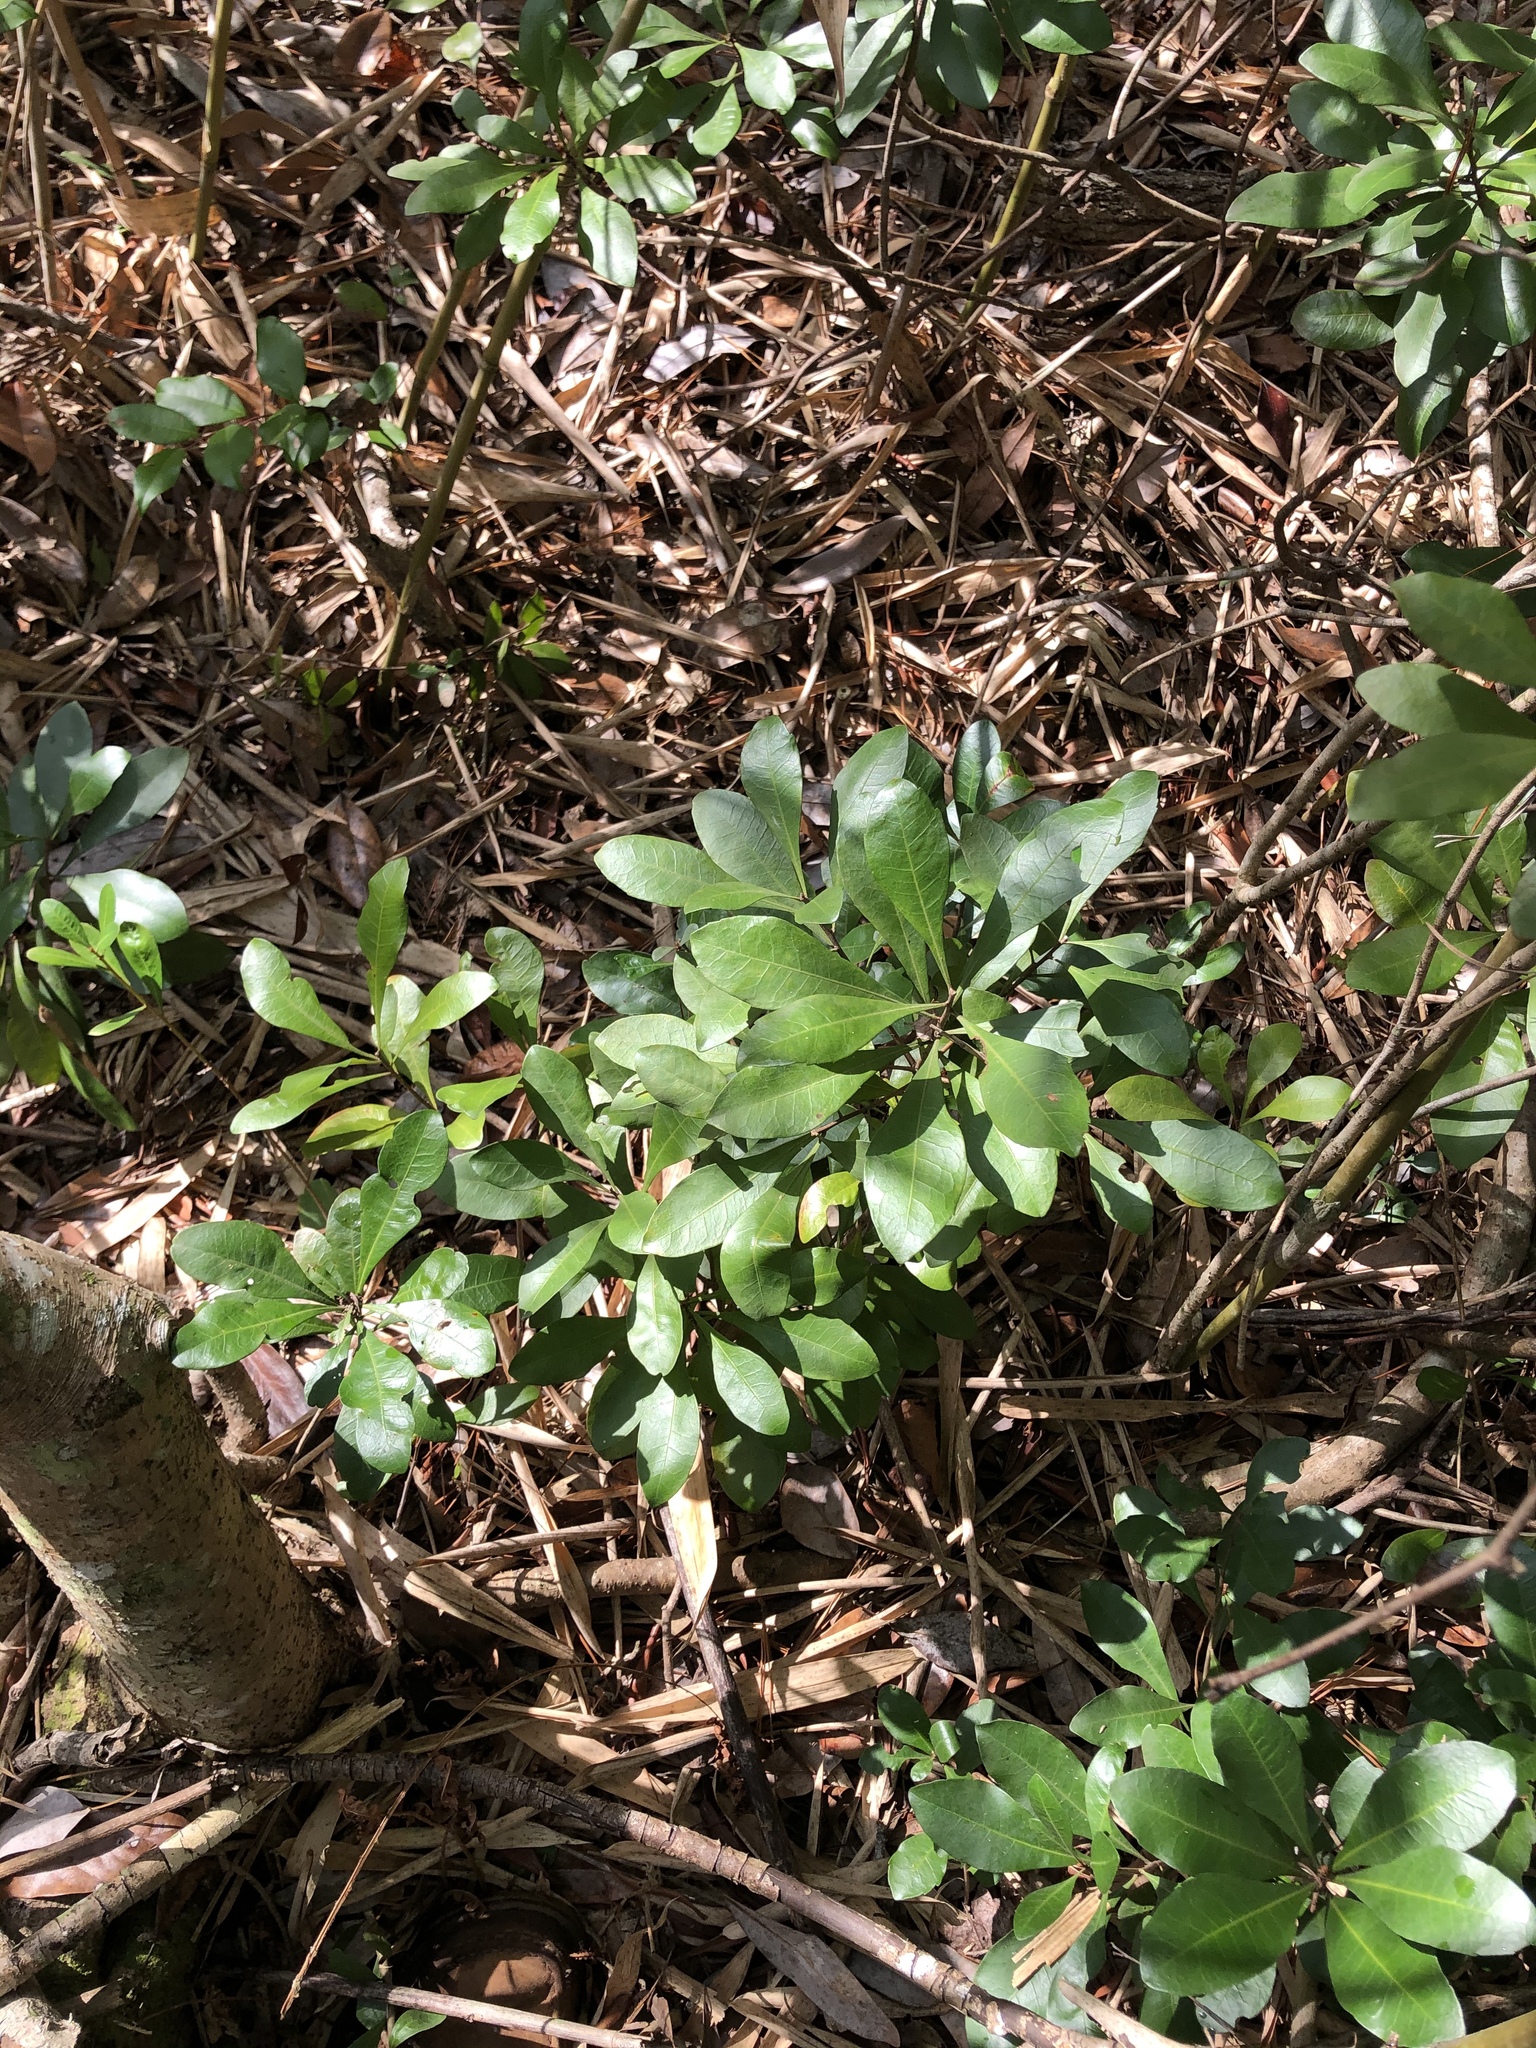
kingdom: Plantae
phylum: Tracheophyta
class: Magnoliopsida
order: Fagales
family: Myricaceae
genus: Morella
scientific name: Morella inodora
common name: Candle-berry
